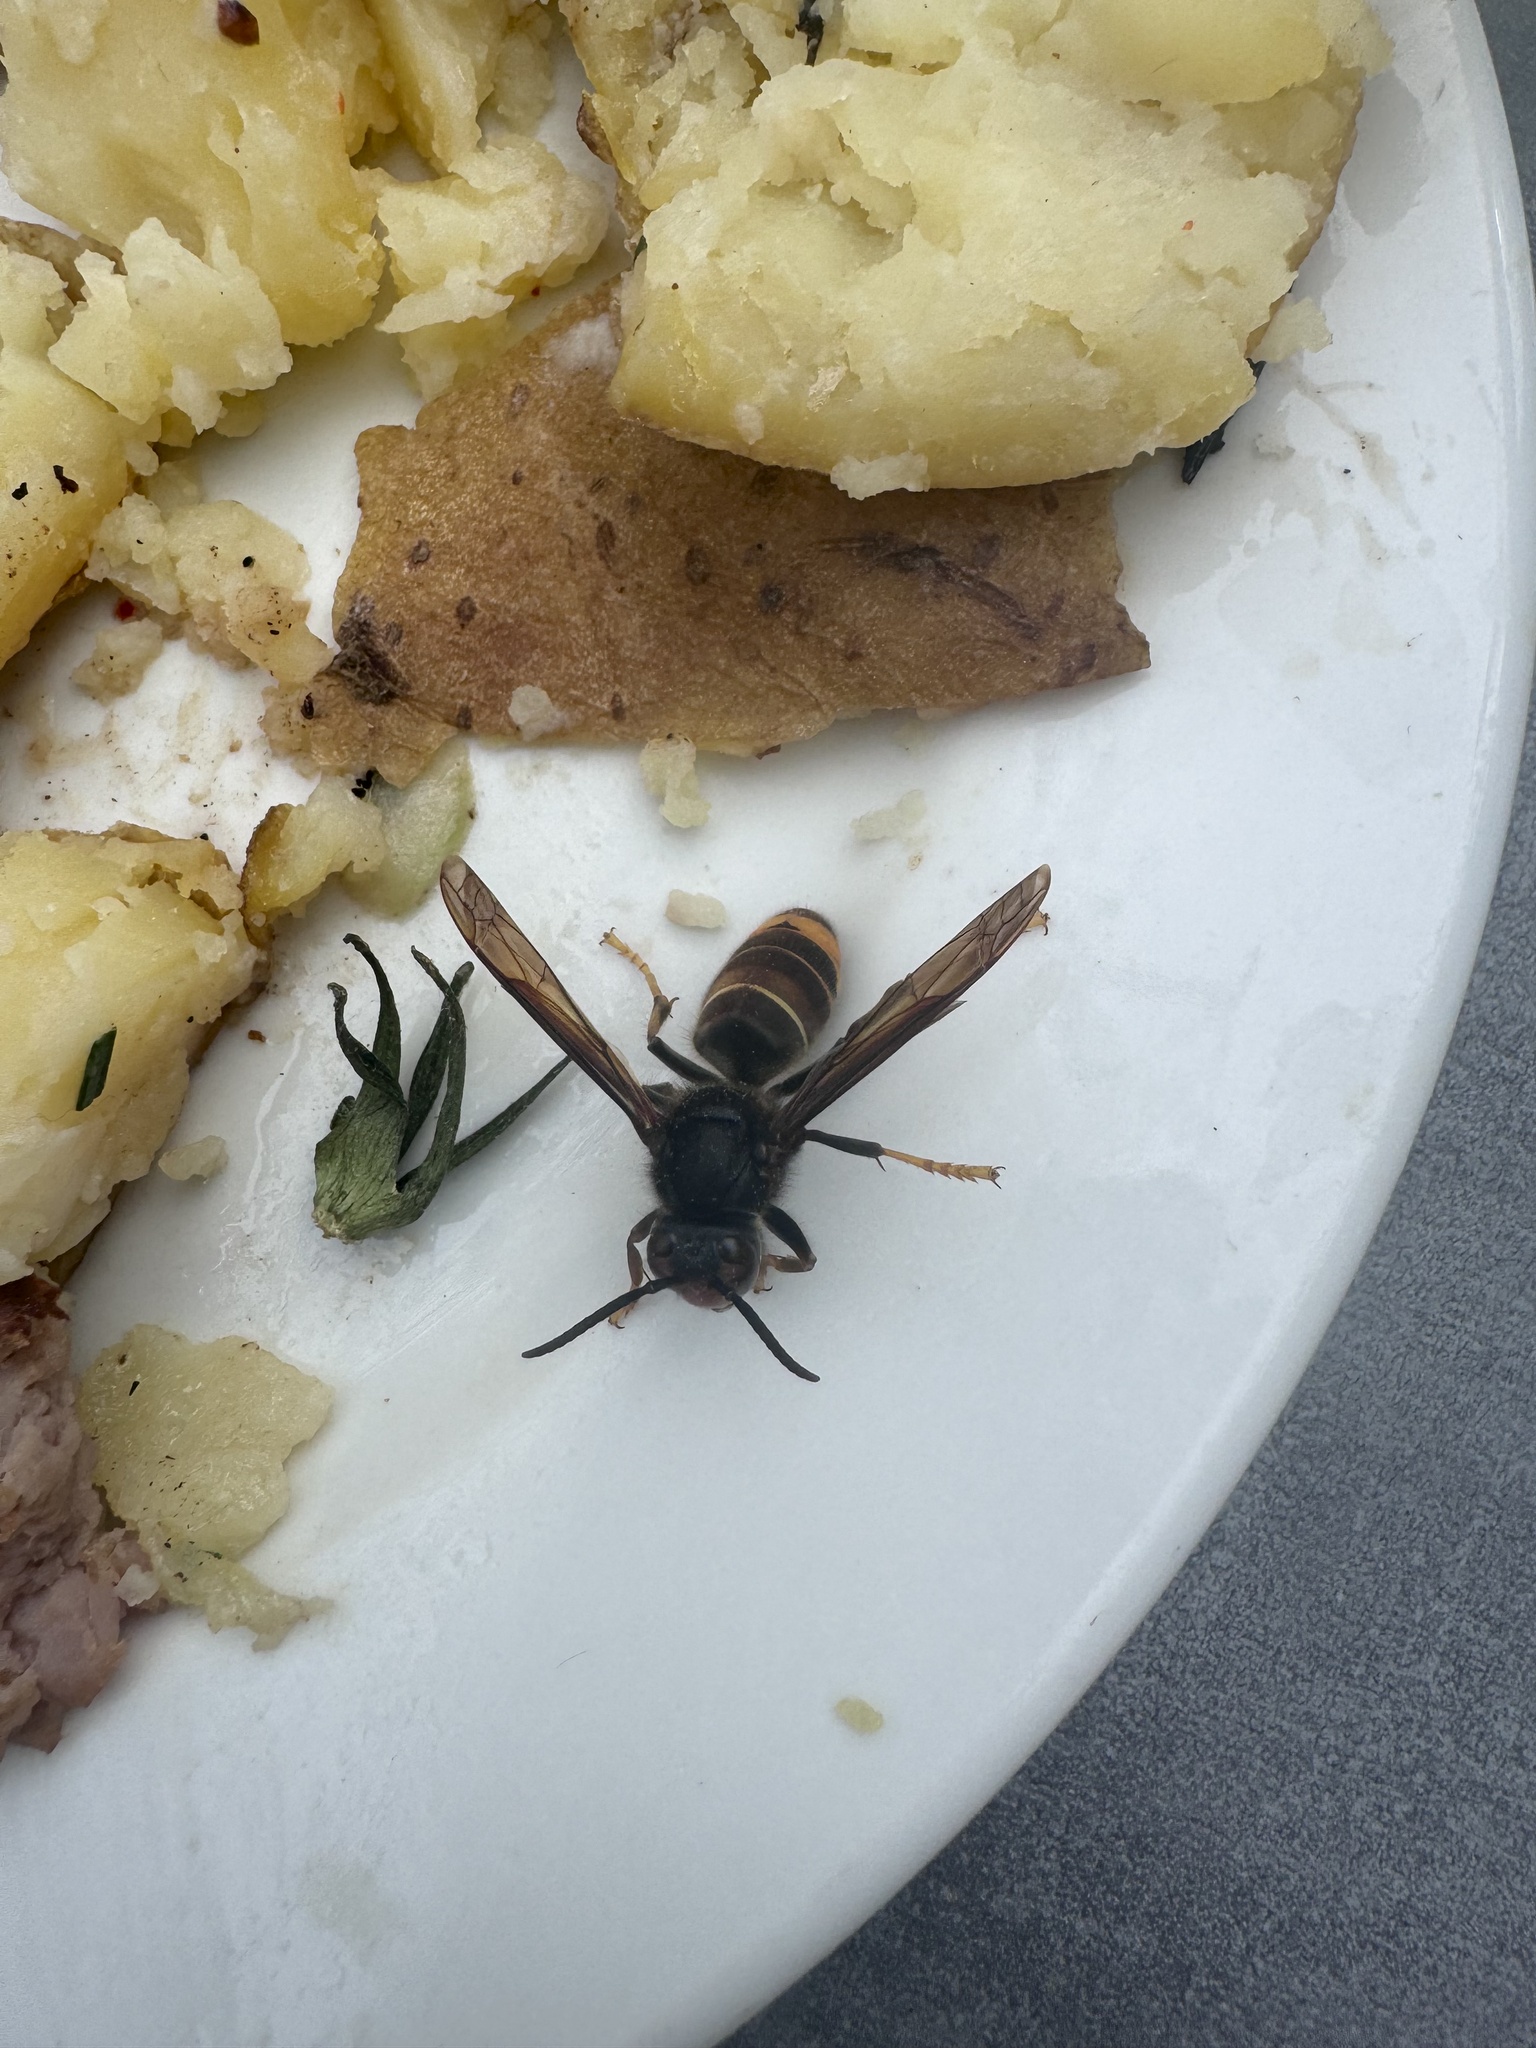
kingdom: Animalia
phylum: Arthropoda
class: Insecta
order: Hymenoptera
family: Vespidae
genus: Vespa
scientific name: Vespa velutina
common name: Asian hornet
